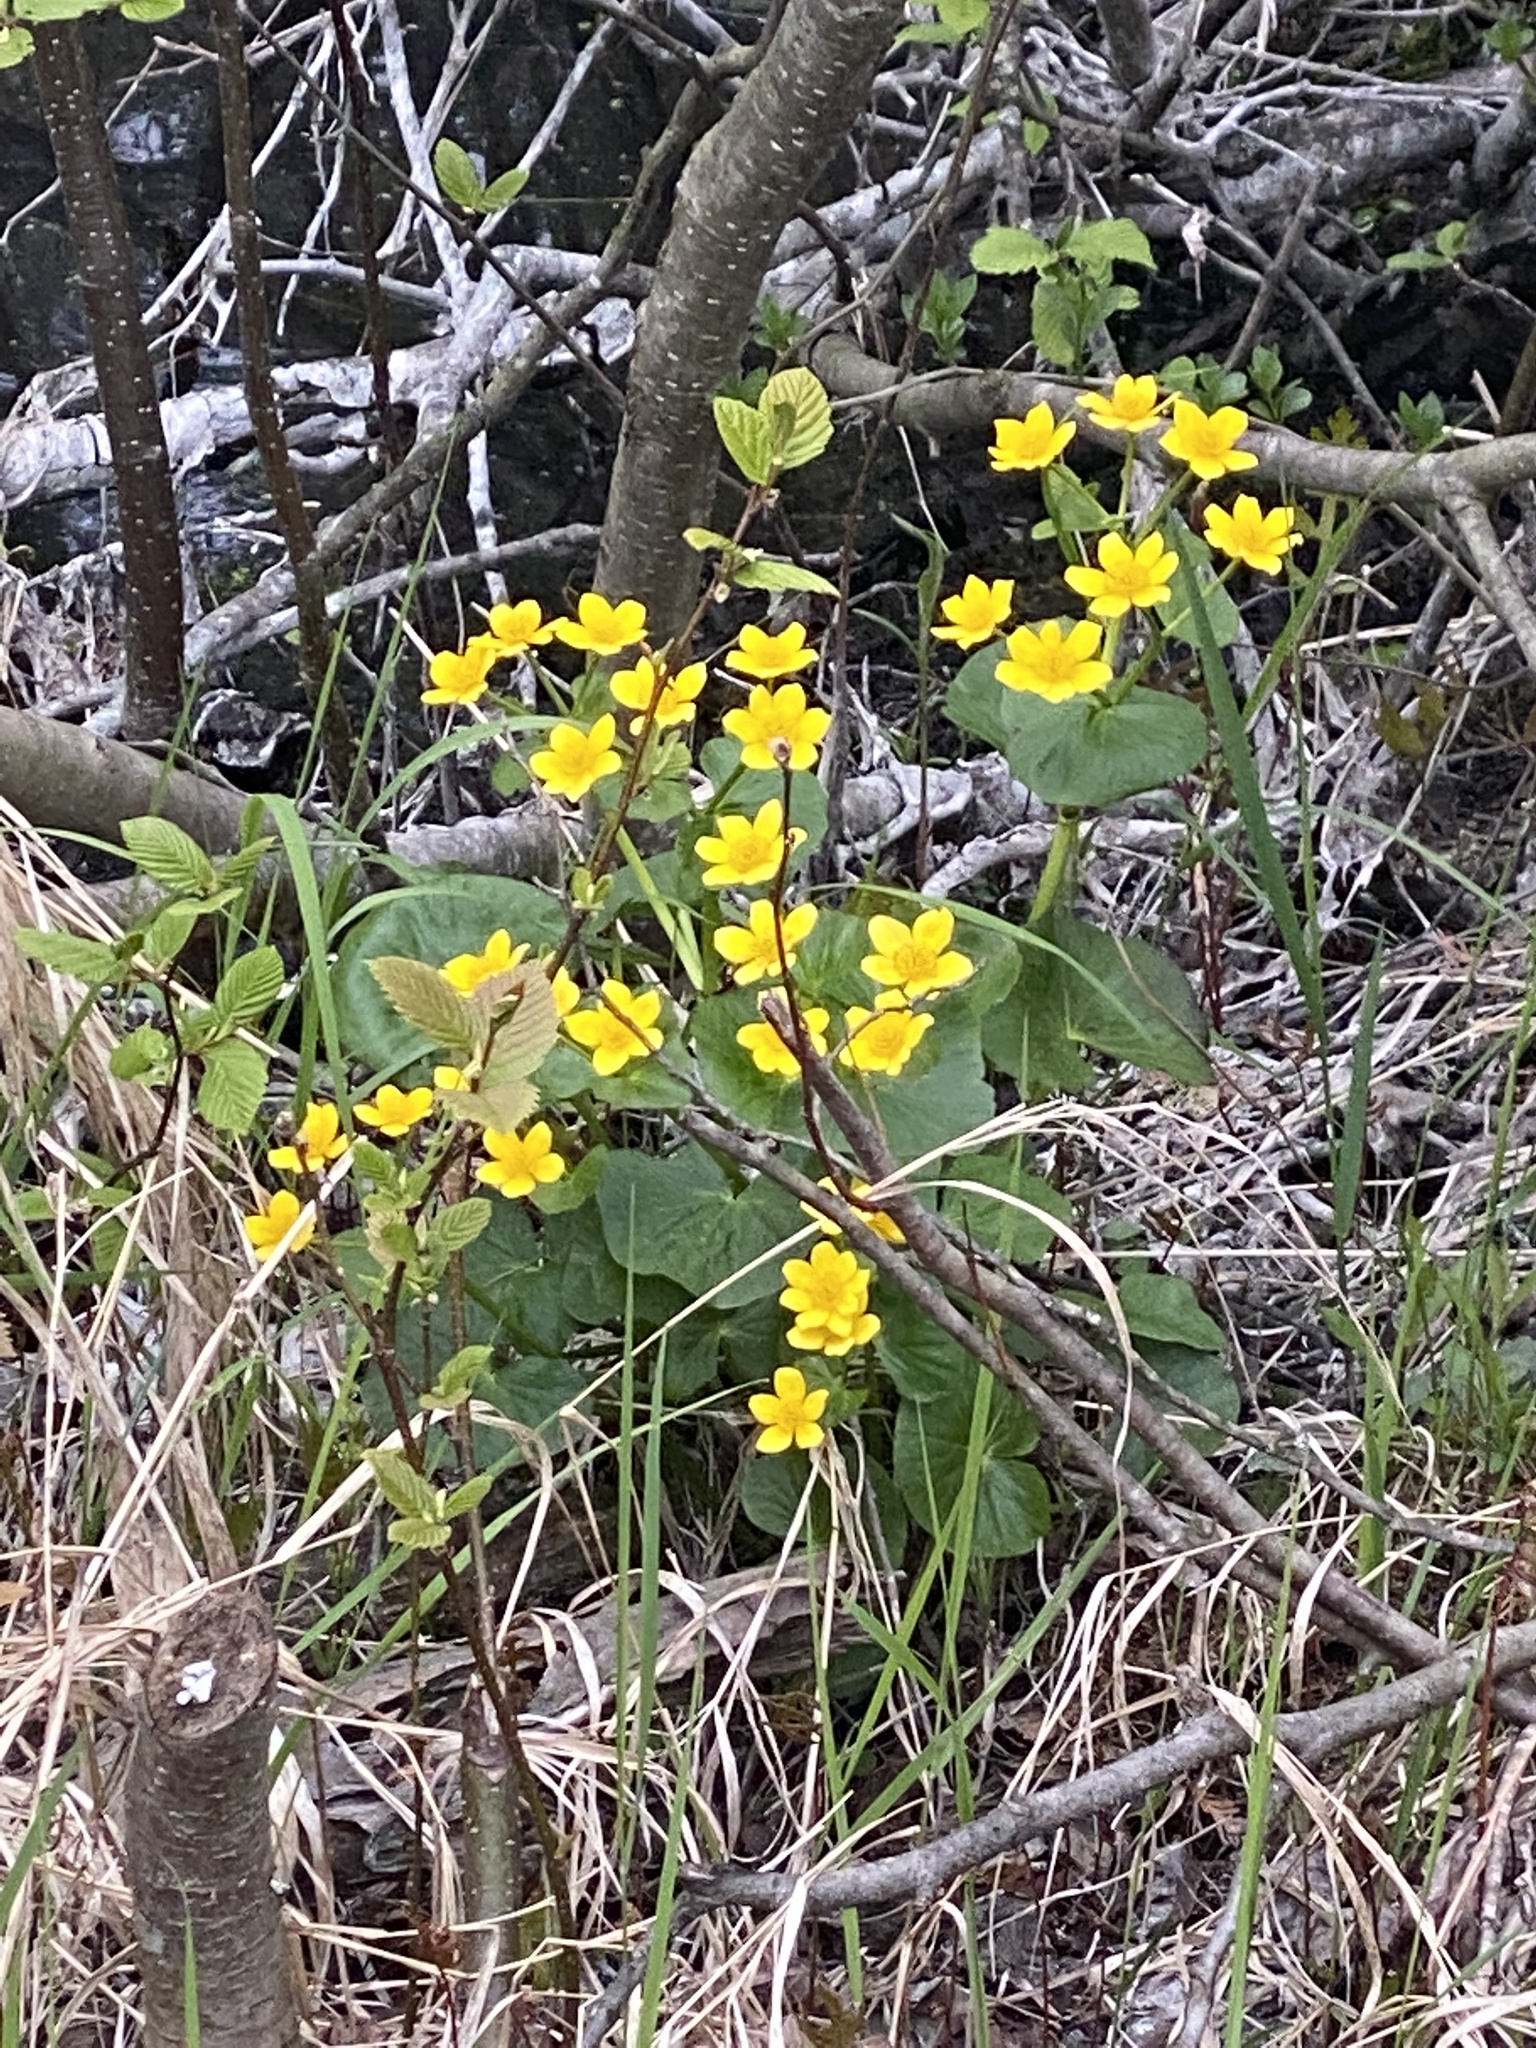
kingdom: Plantae
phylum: Tracheophyta
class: Magnoliopsida
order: Ranunculales
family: Ranunculaceae
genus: Caltha
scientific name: Caltha palustris
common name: Marsh marigold
